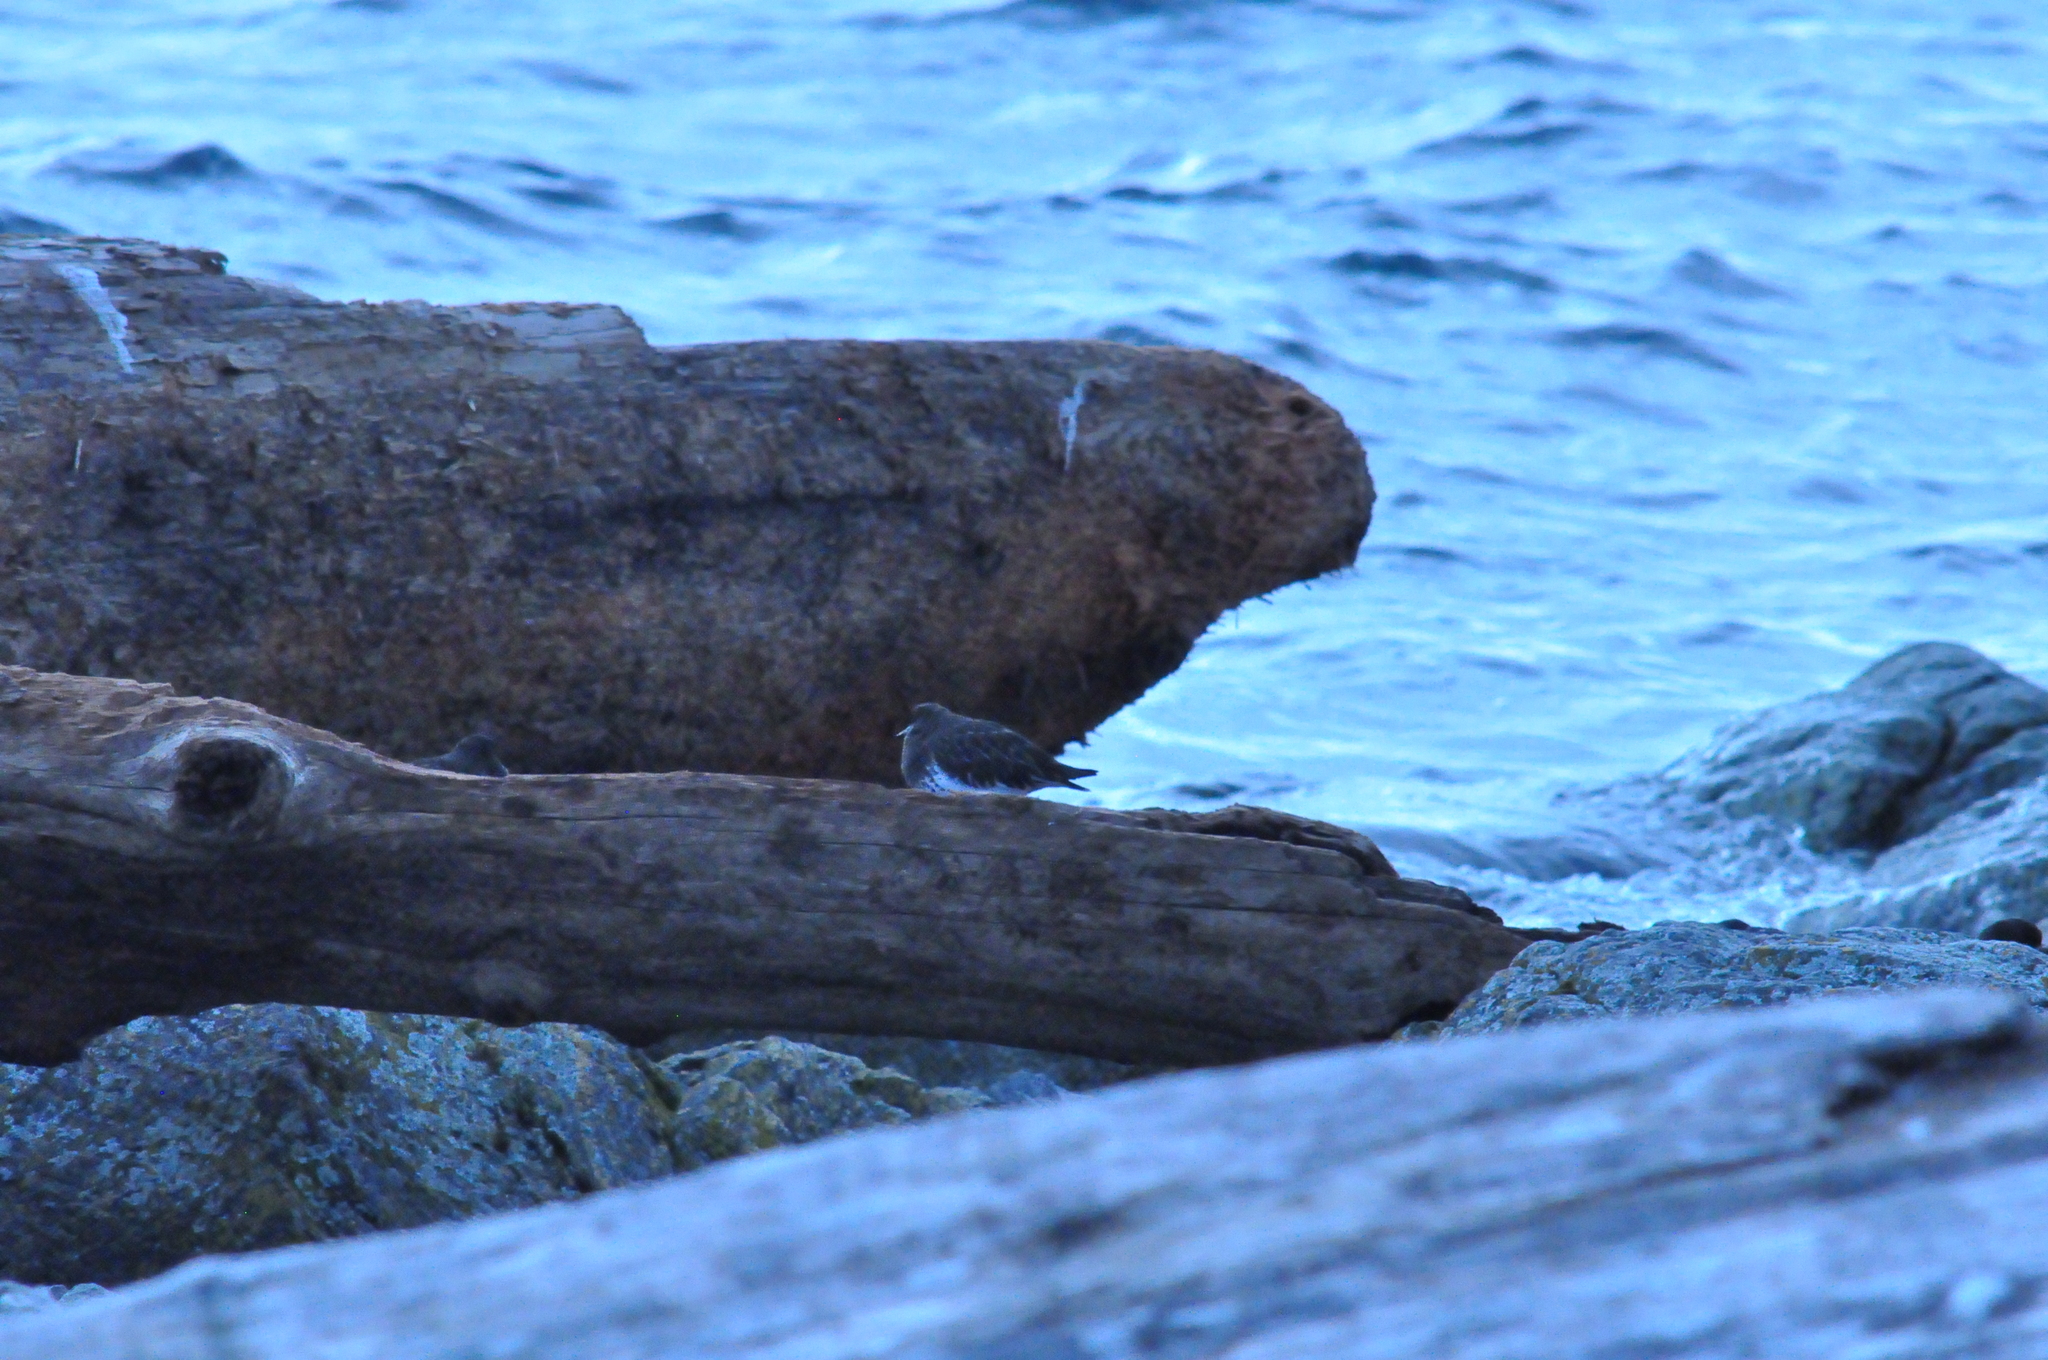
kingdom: Animalia
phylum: Chordata
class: Aves
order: Charadriiformes
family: Scolopacidae
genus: Arenaria
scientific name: Arenaria melanocephala
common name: Black turnstone
